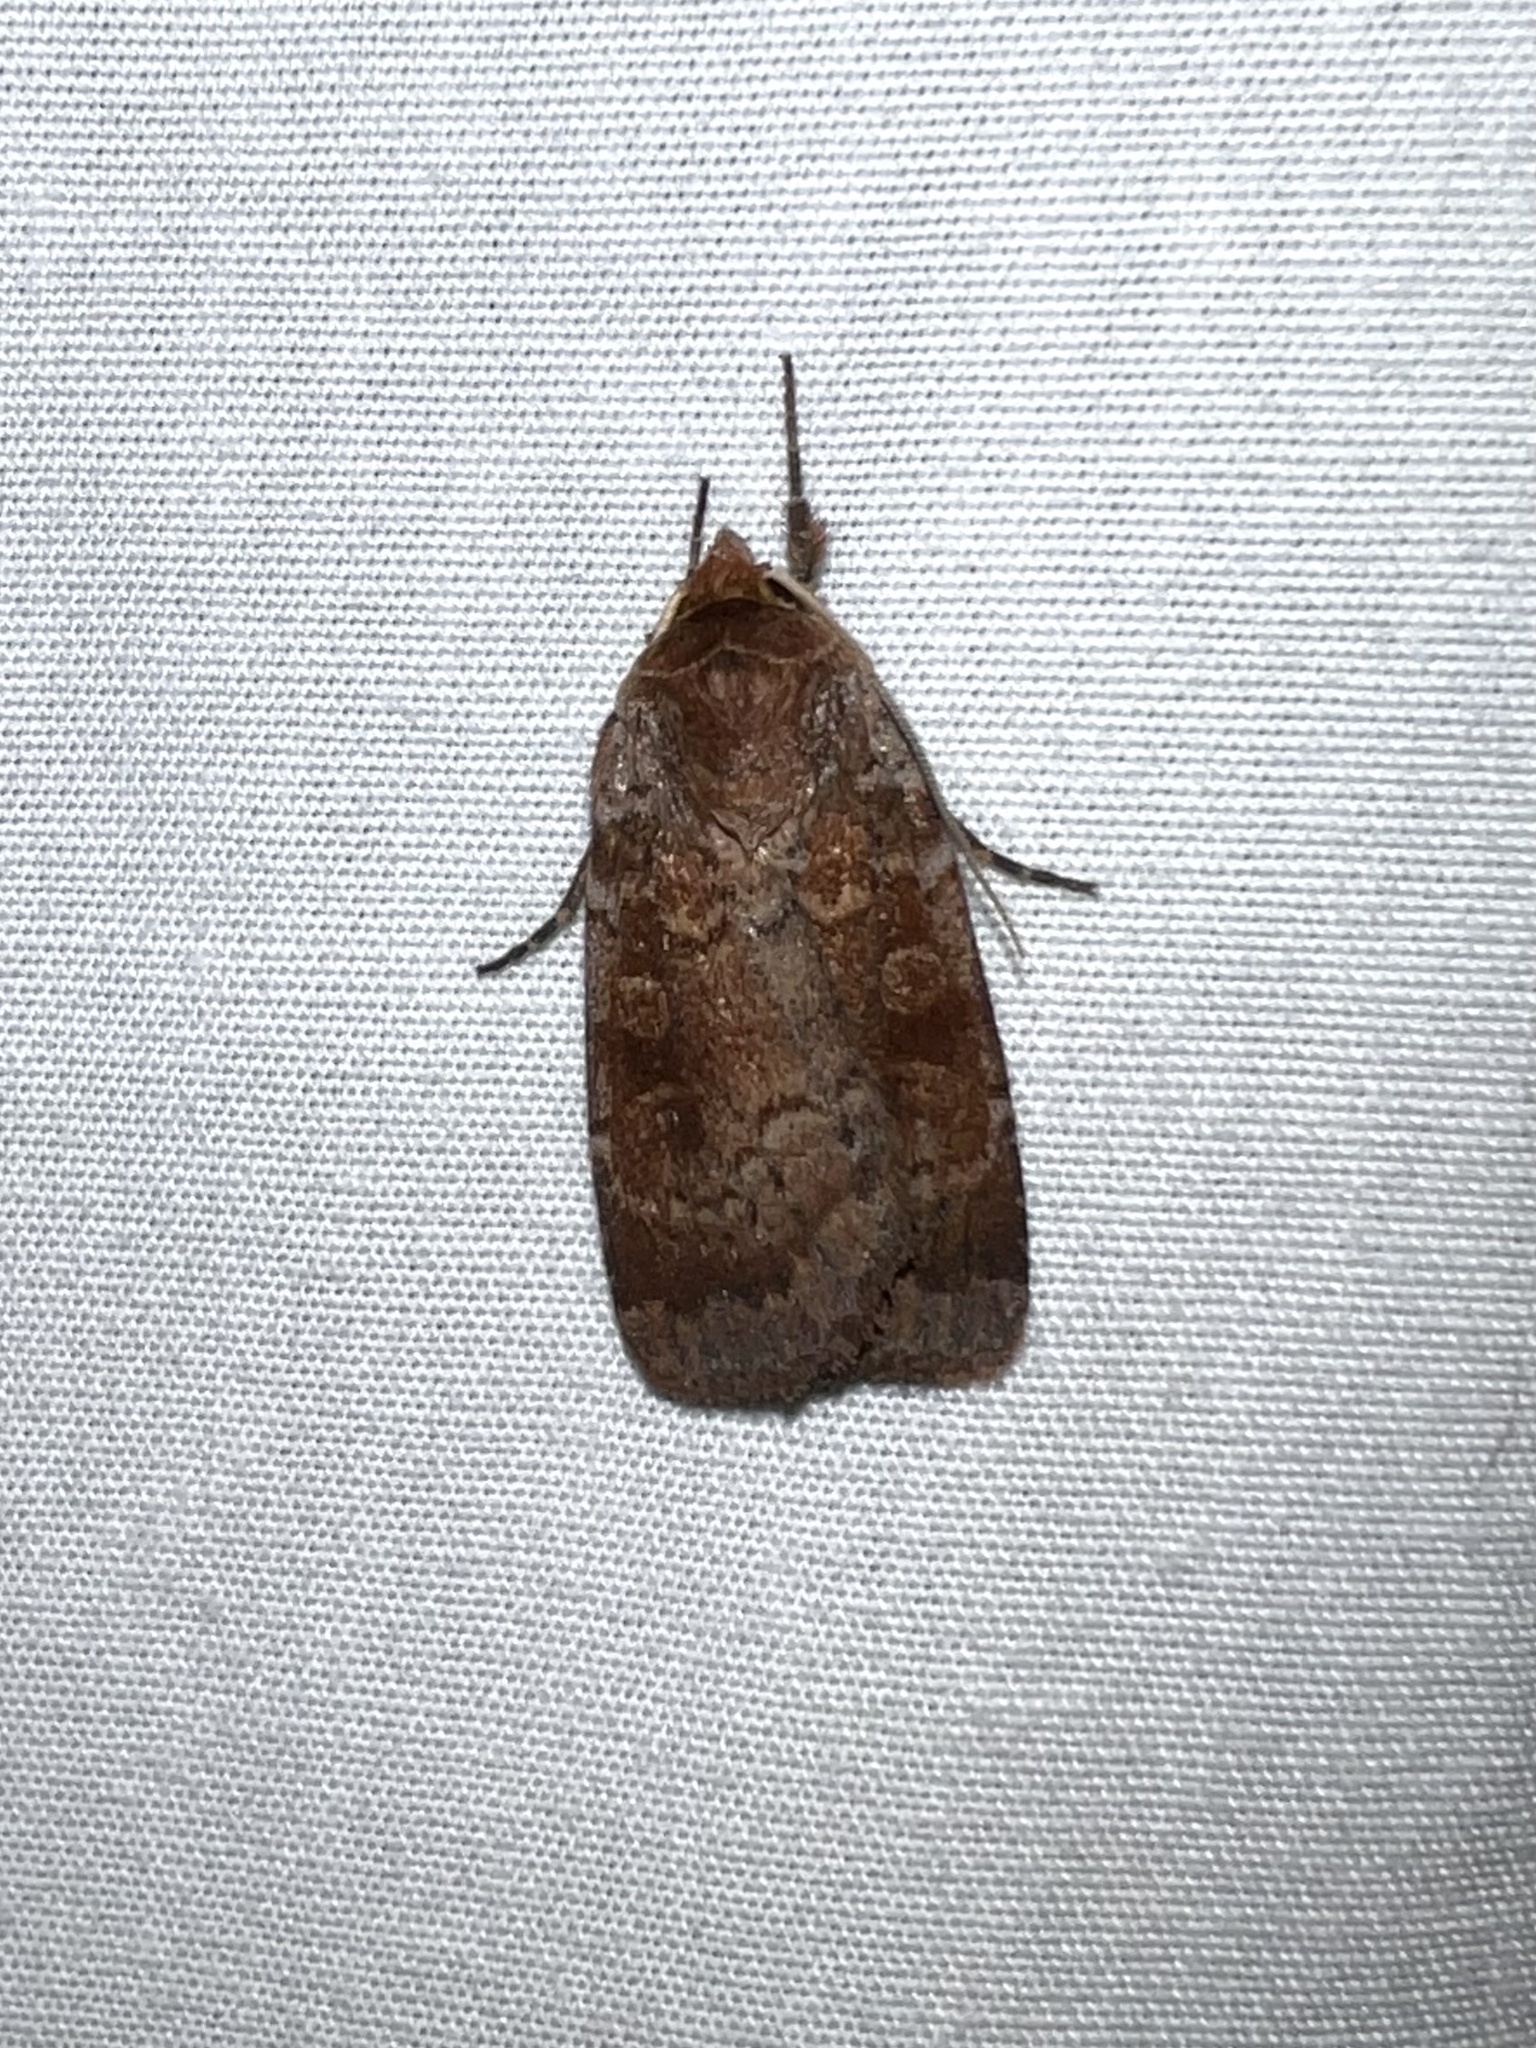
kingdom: Animalia
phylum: Arthropoda
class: Insecta
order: Lepidoptera
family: Noctuidae
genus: Lycophotia
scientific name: Lycophotia phyllophora
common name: Lycophotia moth
